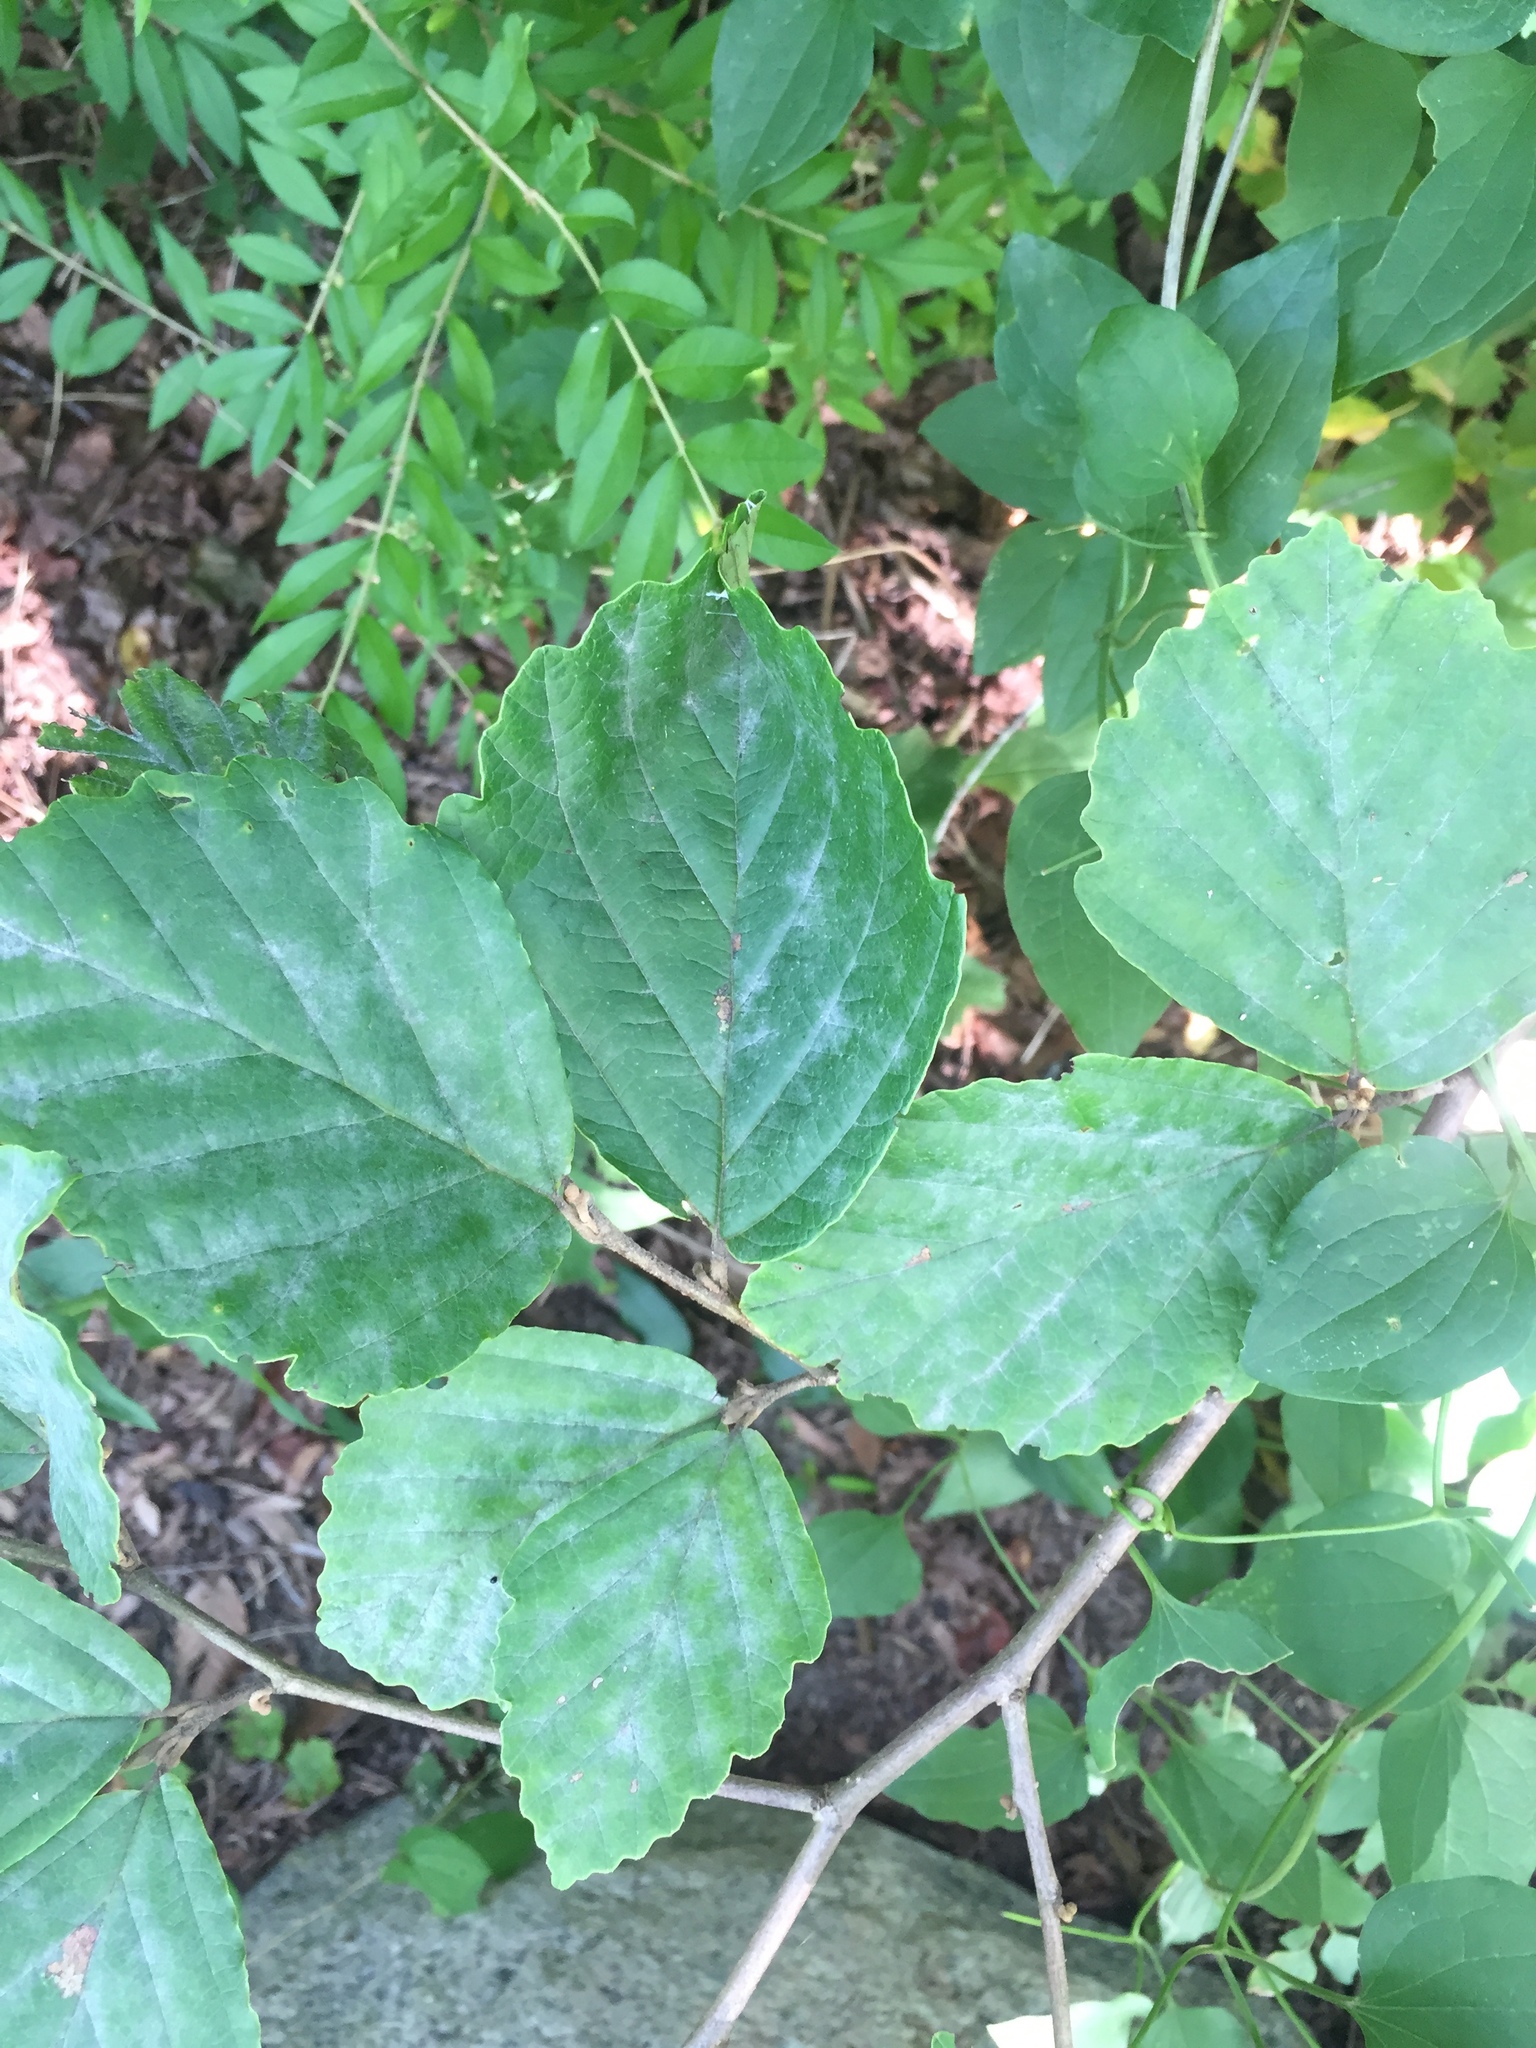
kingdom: Plantae
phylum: Tracheophyta
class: Magnoliopsida
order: Saxifragales
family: Hamamelidaceae
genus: Hamamelis
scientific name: Hamamelis virginiana
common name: Witch-hazel
